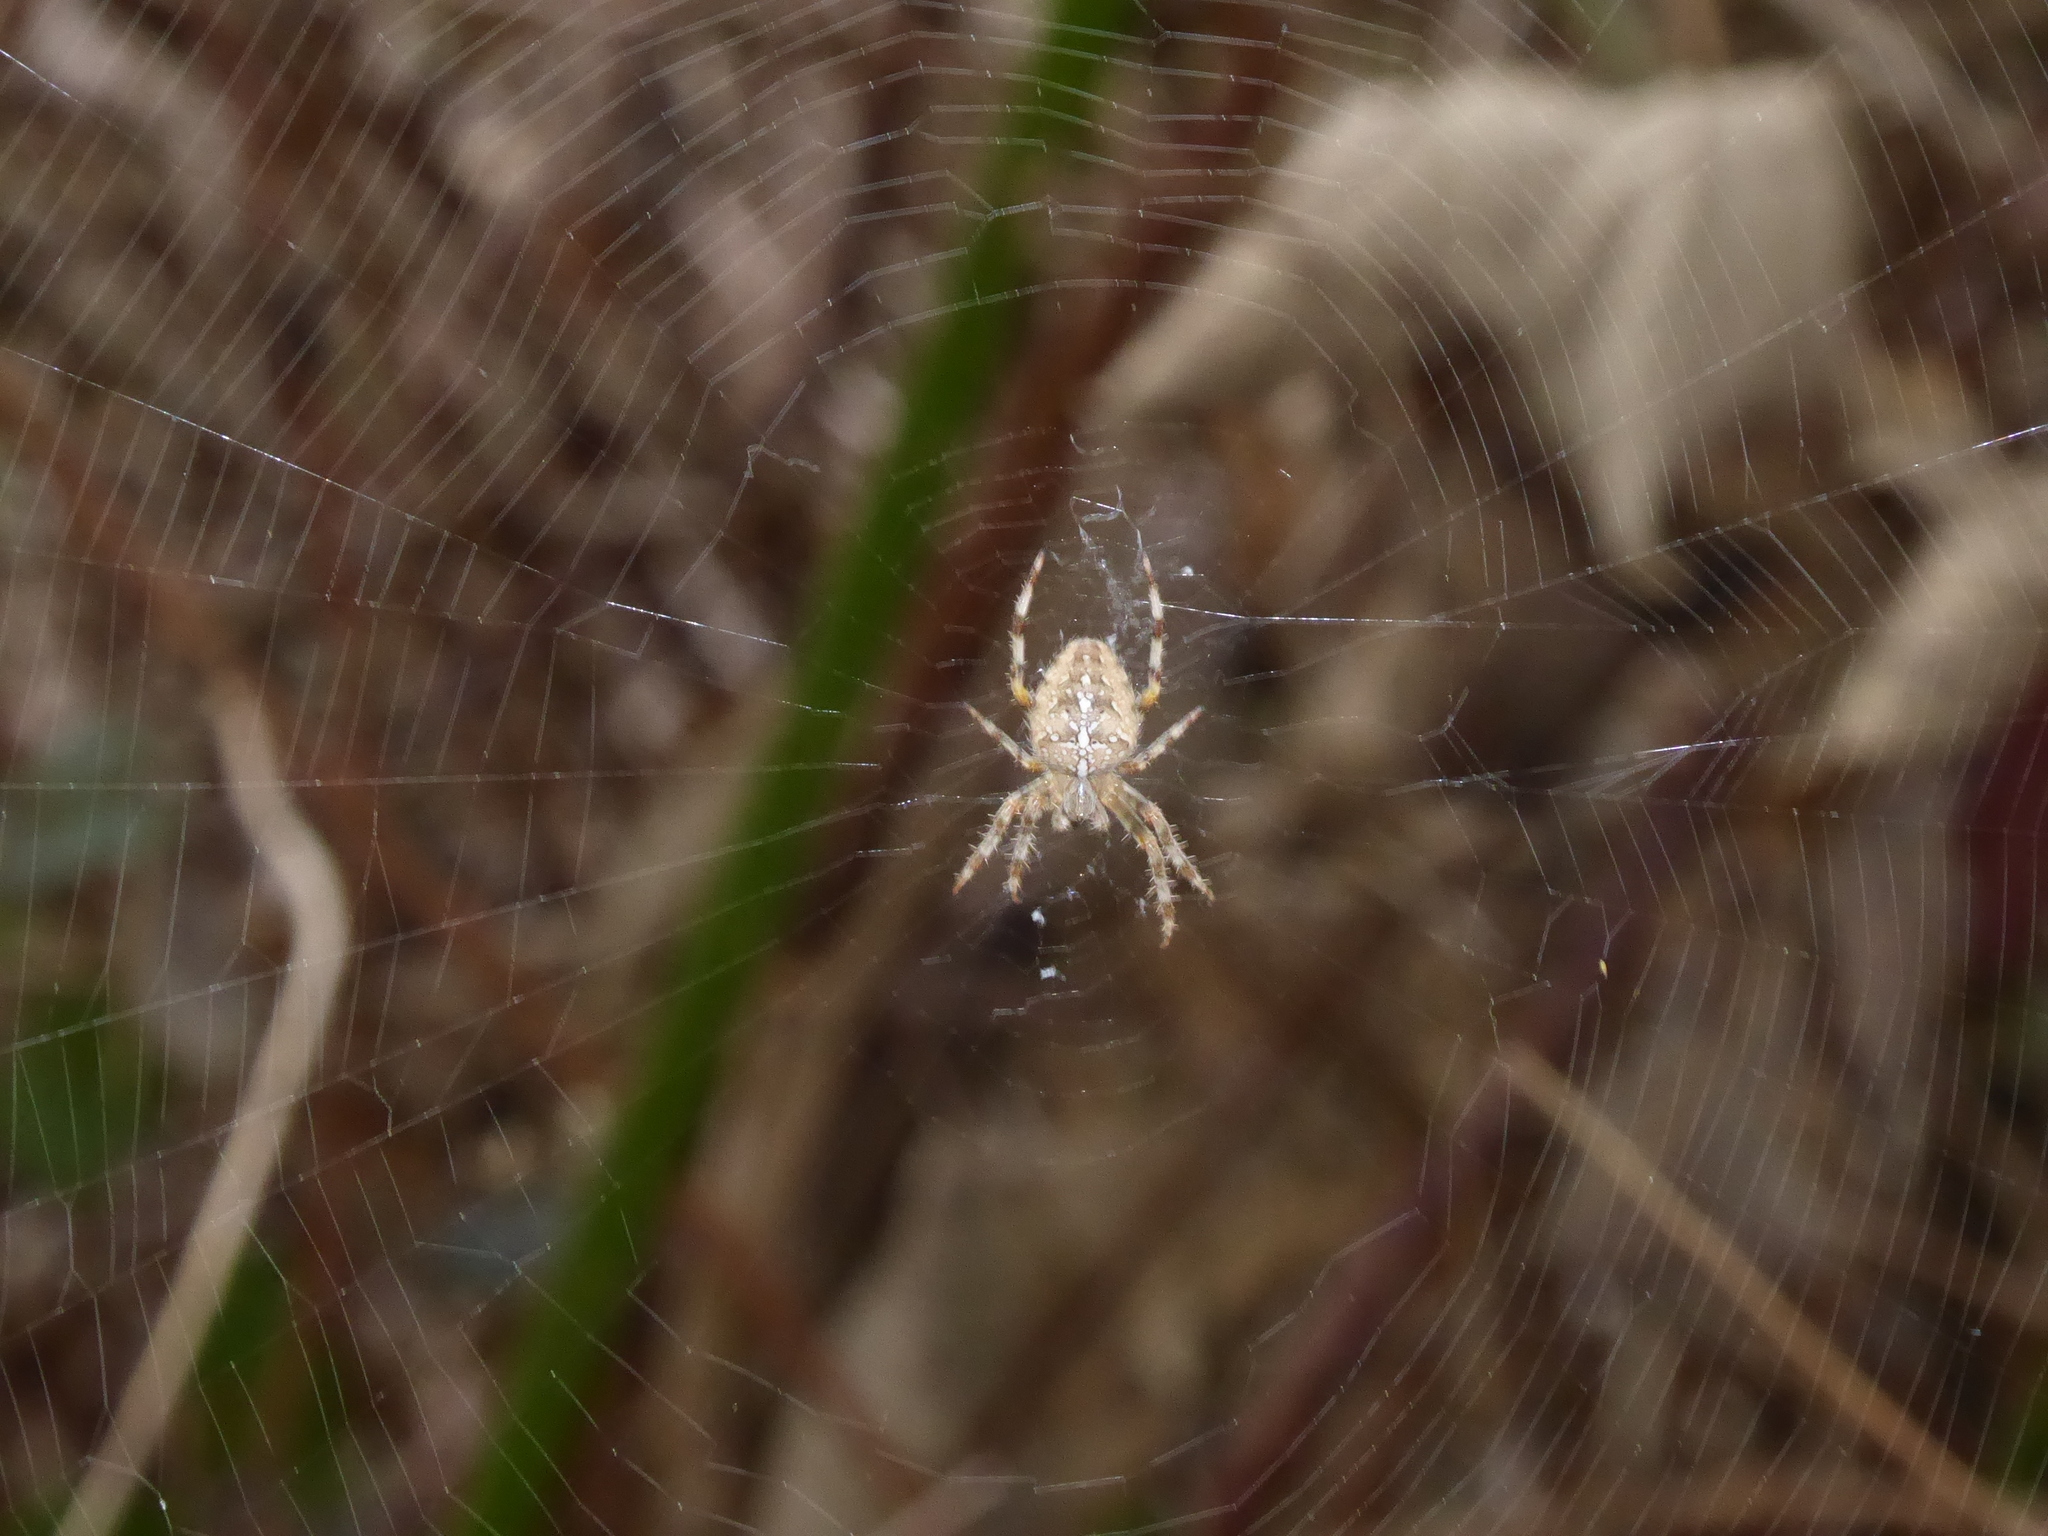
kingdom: Animalia
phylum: Arthropoda
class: Arachnida
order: Araneae
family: Araneidae
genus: Araneus
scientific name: Araneus diadematus
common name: Cross orbweaver
